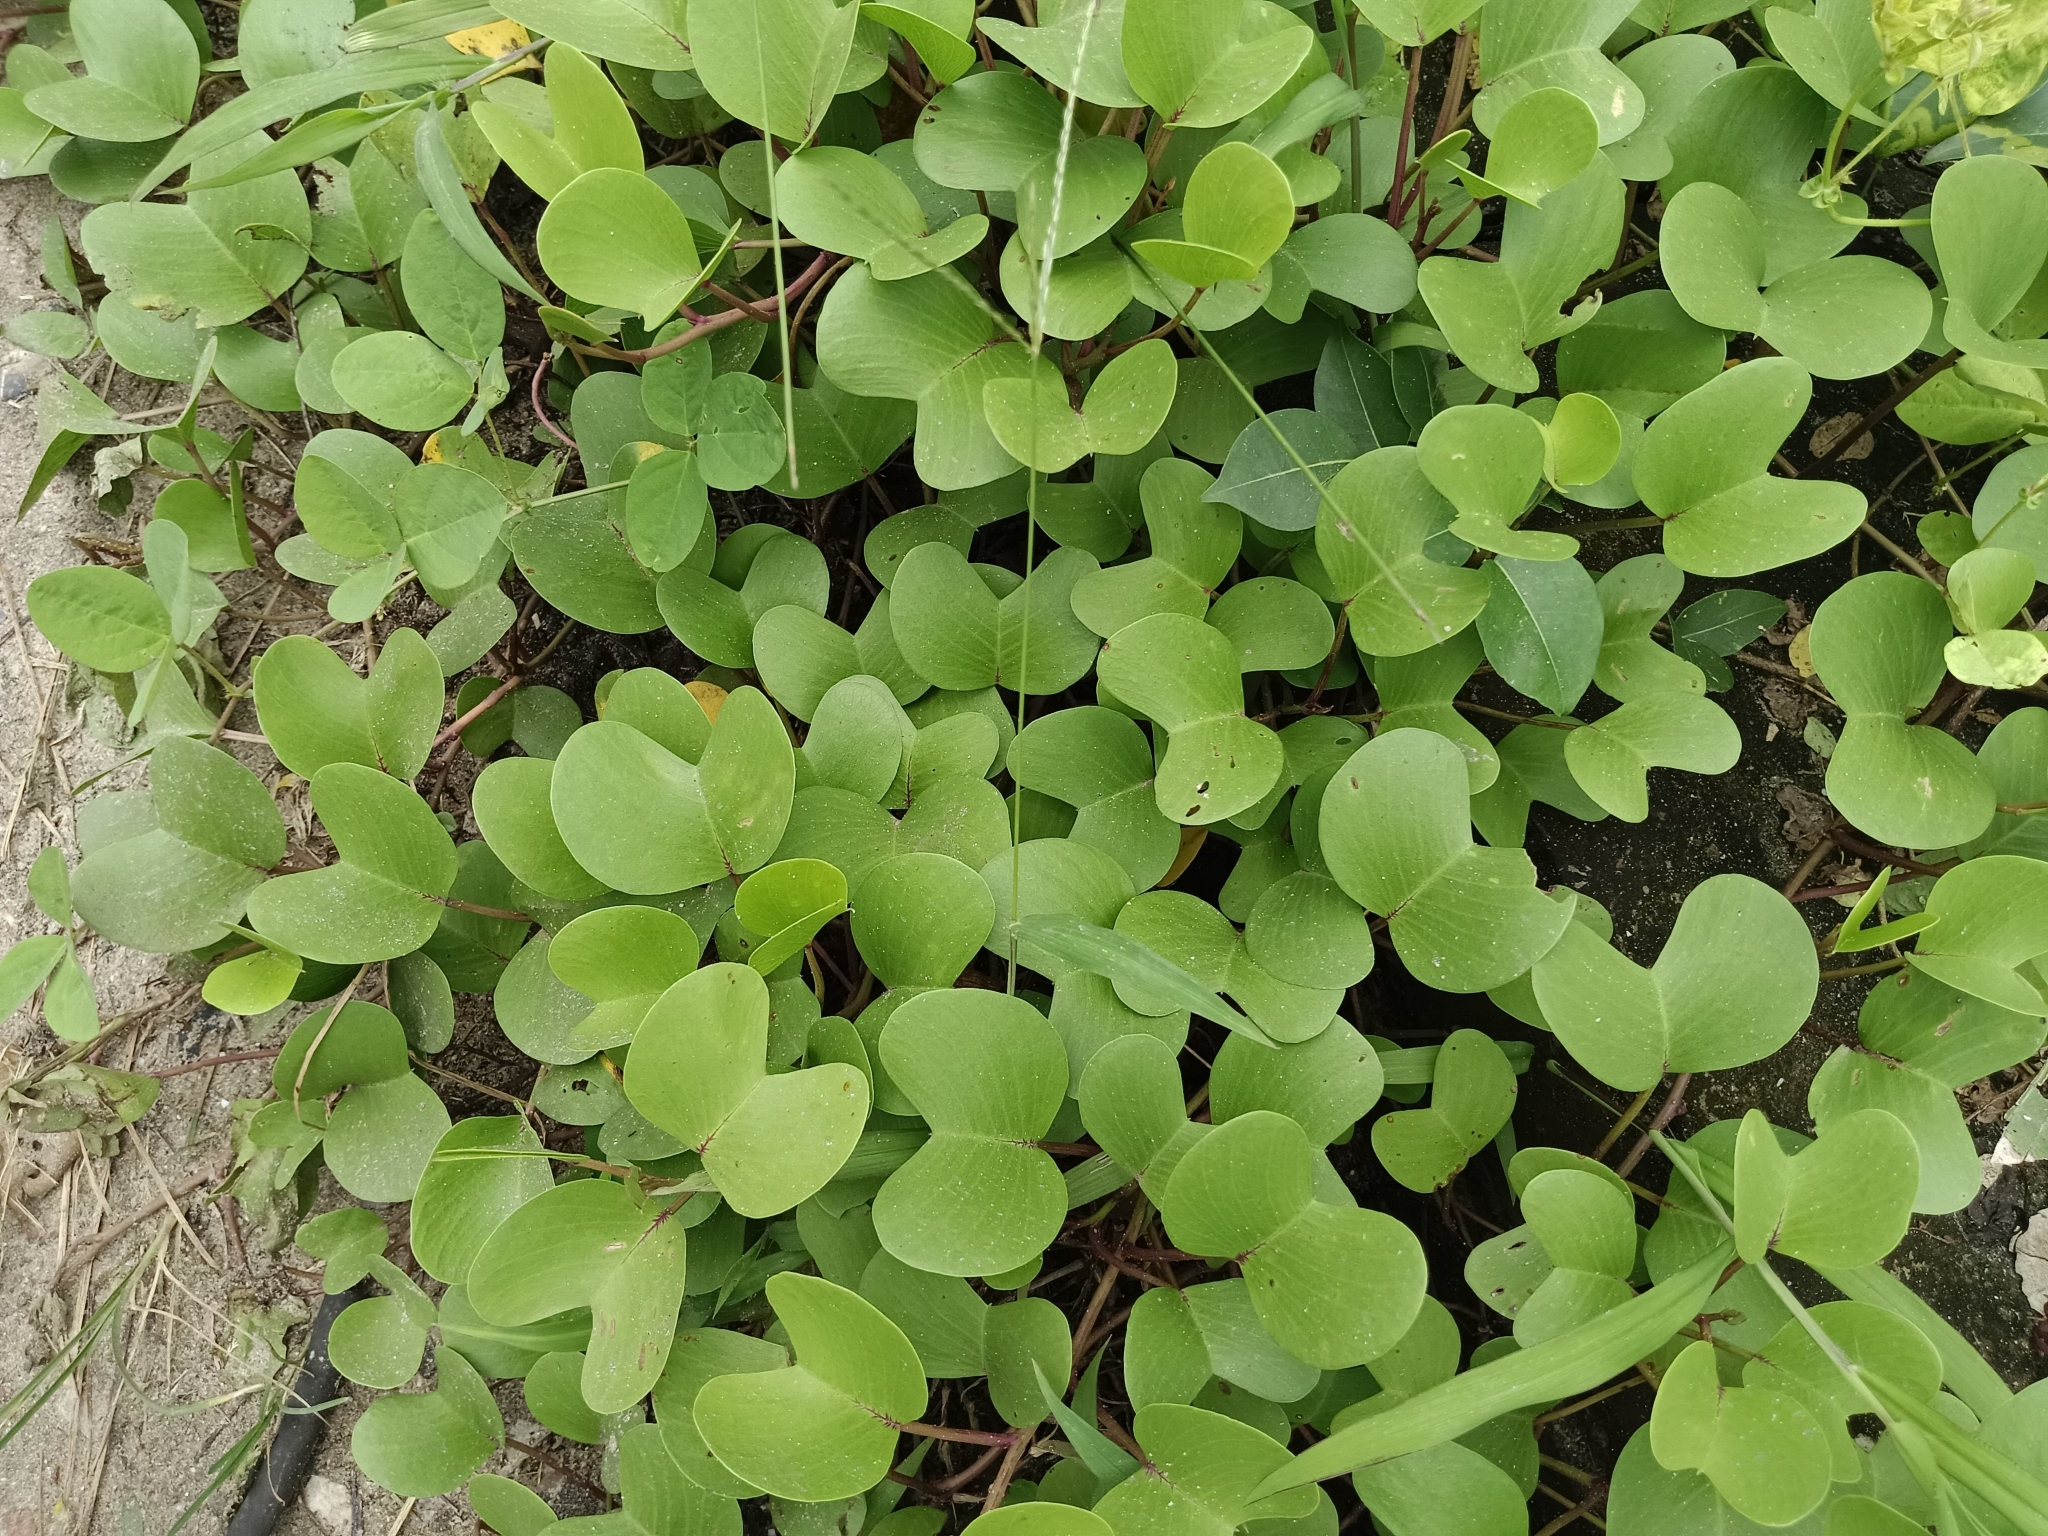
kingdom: Plantae
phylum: Tracheophyta
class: Magnoliopsida
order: Solanales
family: Convolvulaceae
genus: Ipomoea
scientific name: Ipomoea pes-caprae
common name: Beach morning glory
